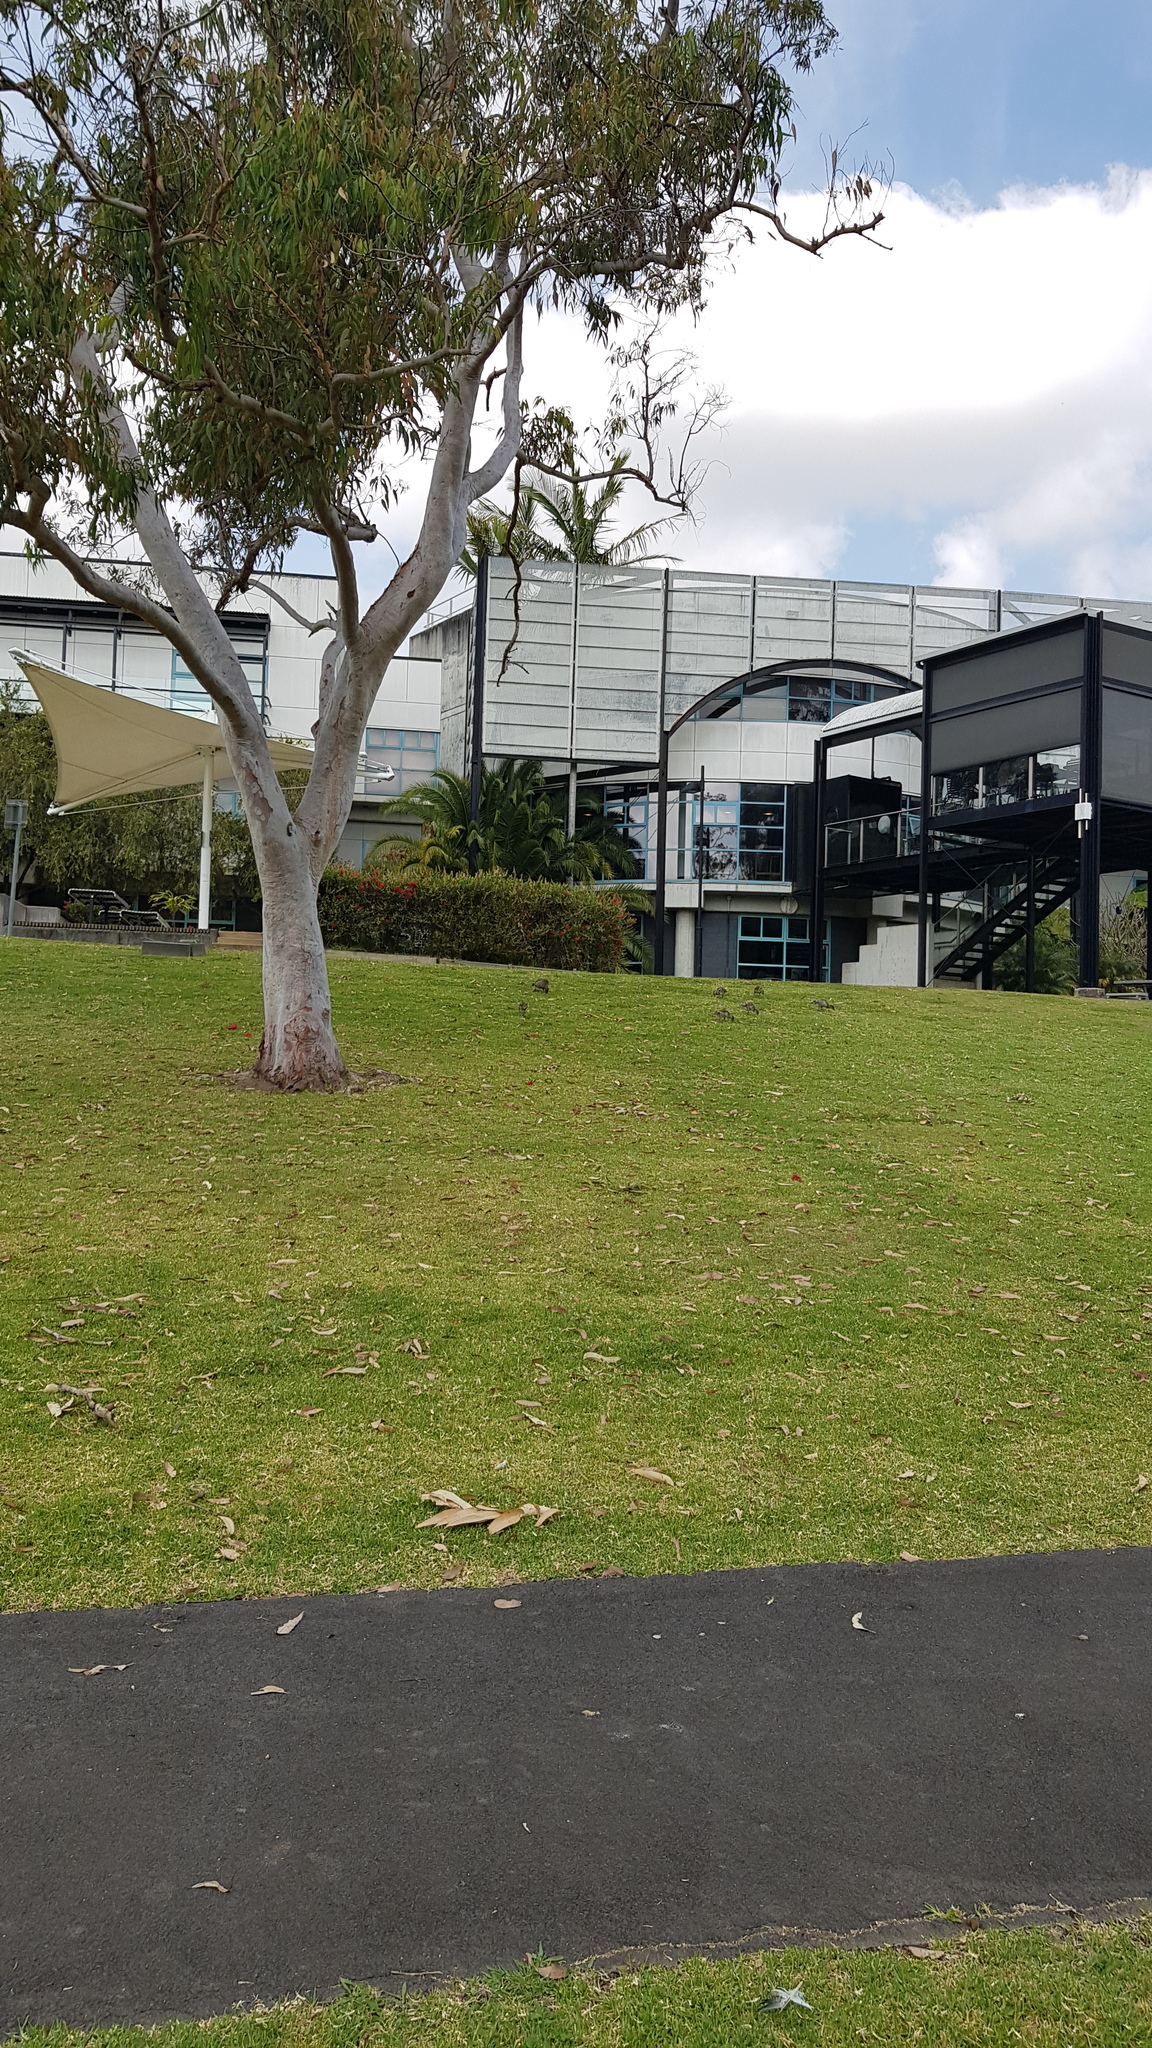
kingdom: Animalia
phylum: Chordata
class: Aves
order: Anseriformes
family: Anatidae
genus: Chenonetta
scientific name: Chenonetta jubata
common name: Maned duck
